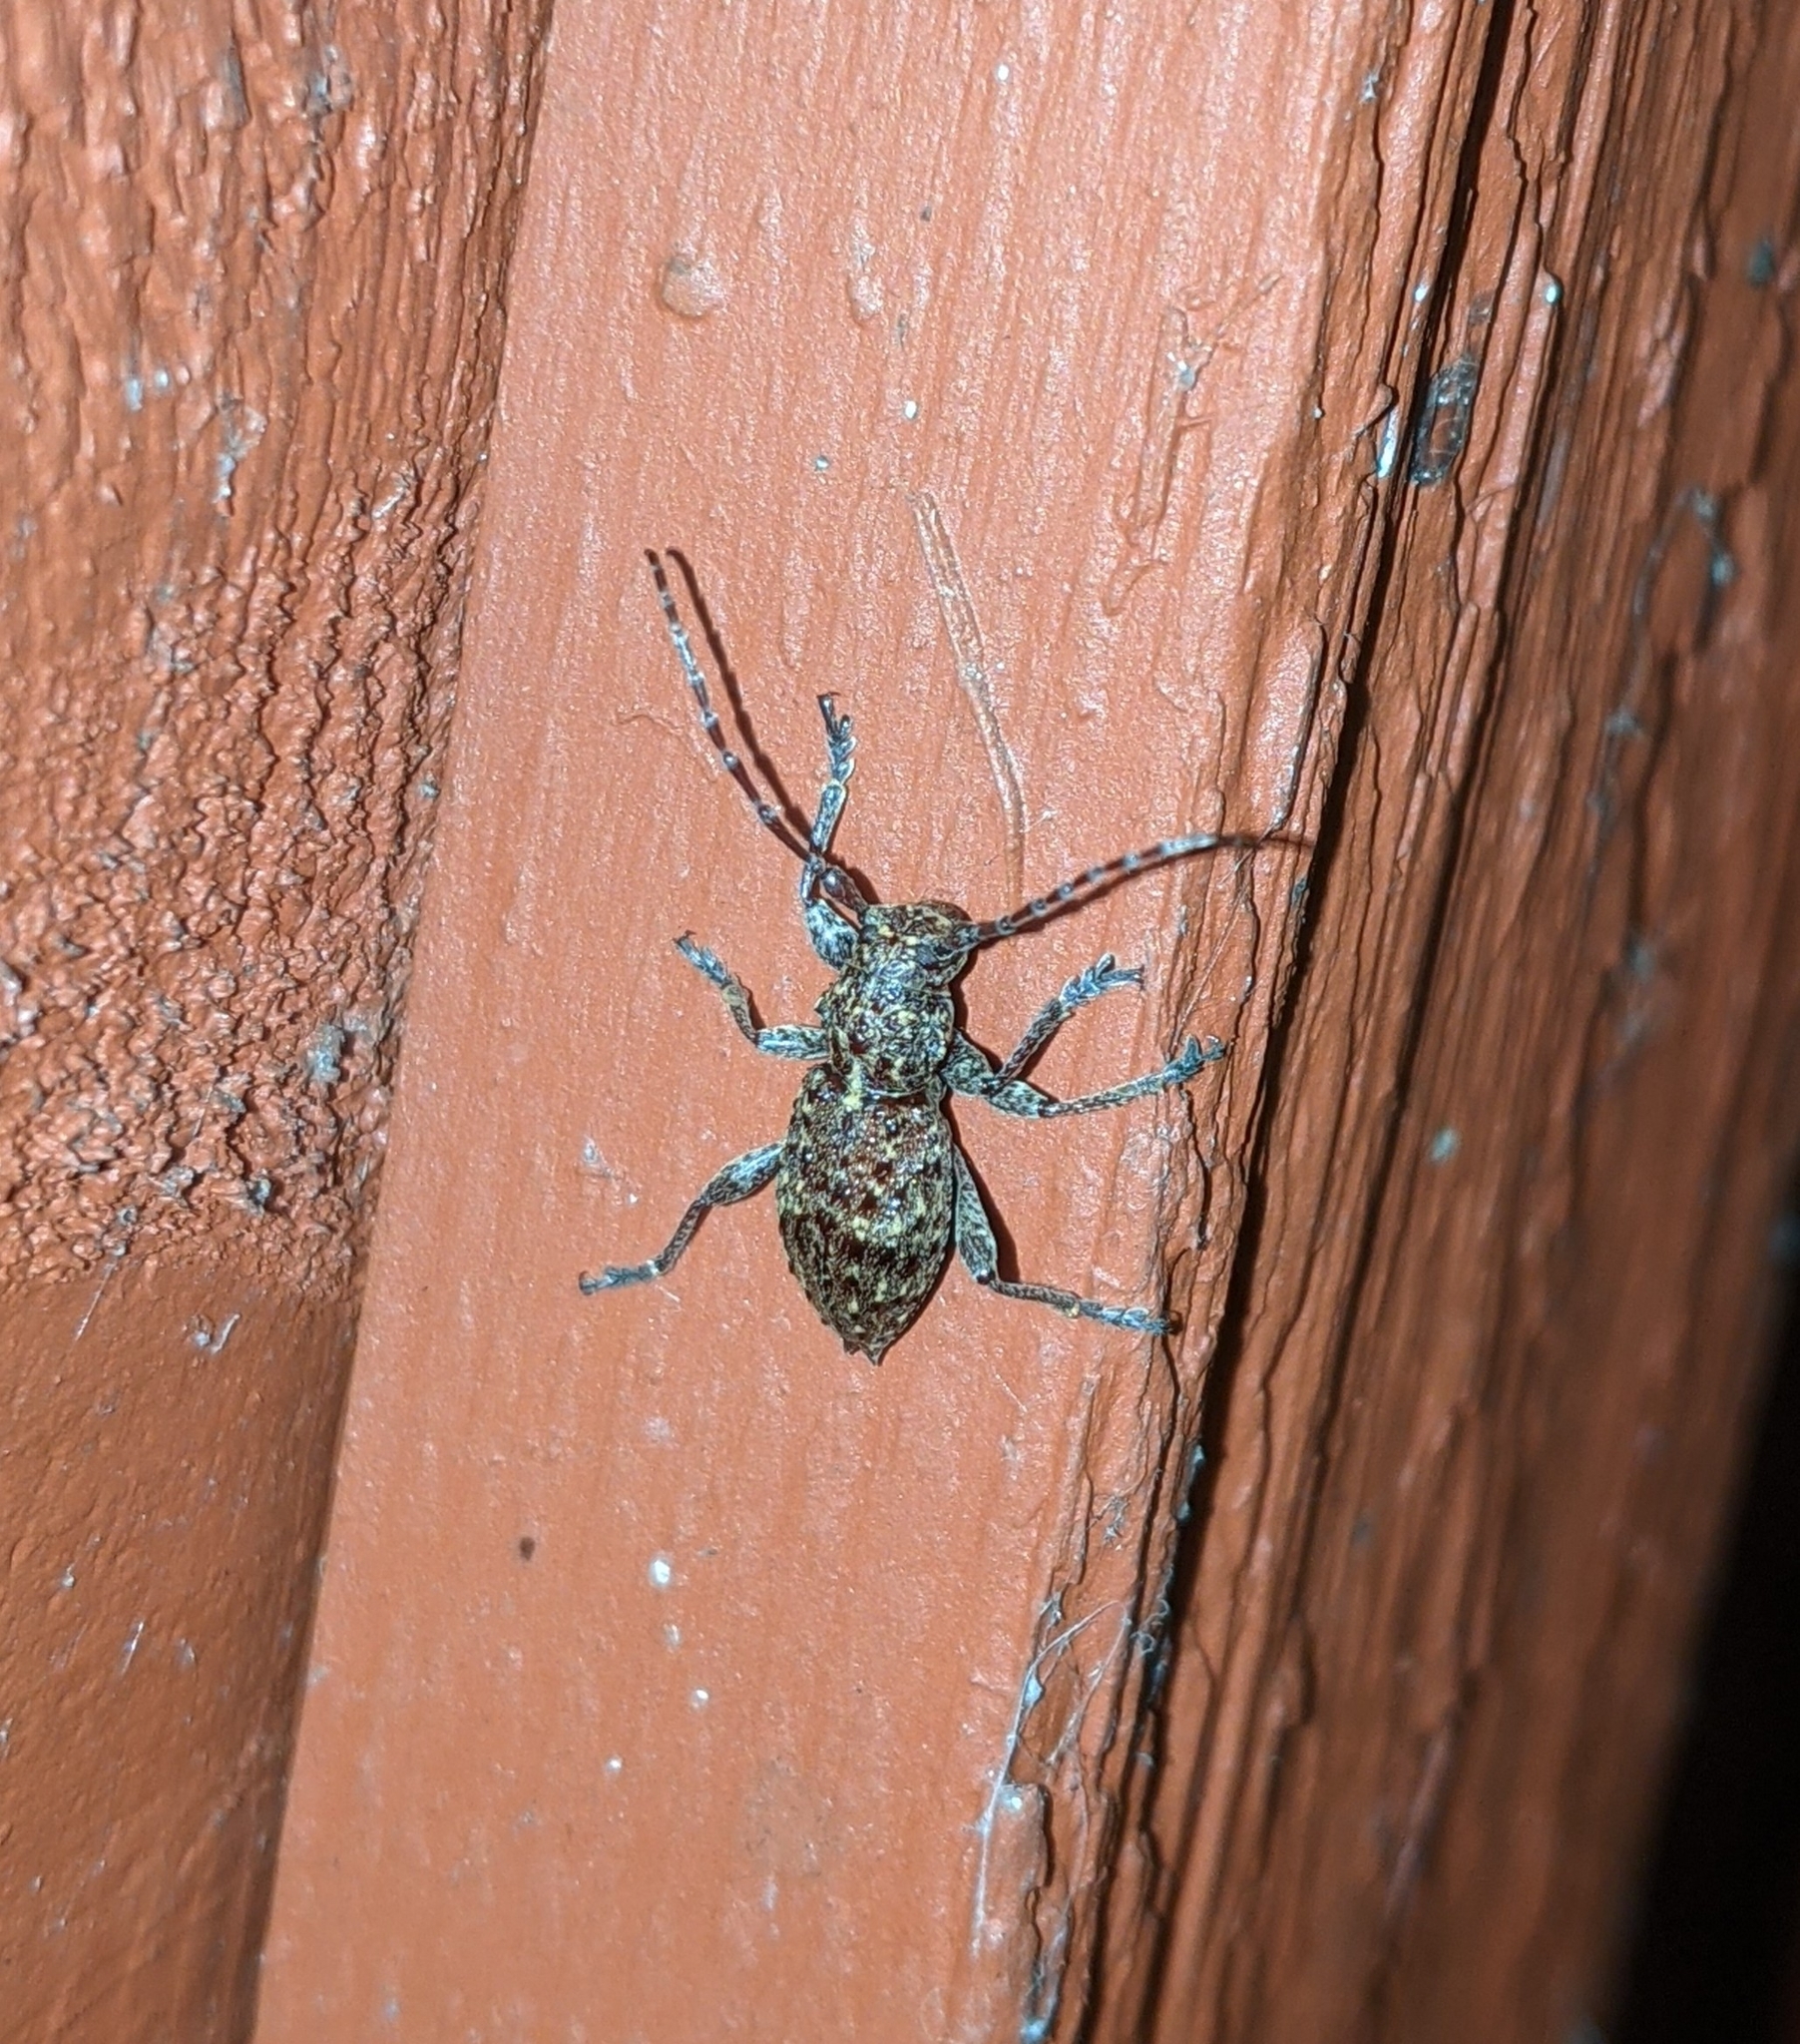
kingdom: Animalia
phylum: Arthropoda
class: Insecta
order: Coleoptera
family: Cerambycidae
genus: Plectrura
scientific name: Plectrura spinicauda
